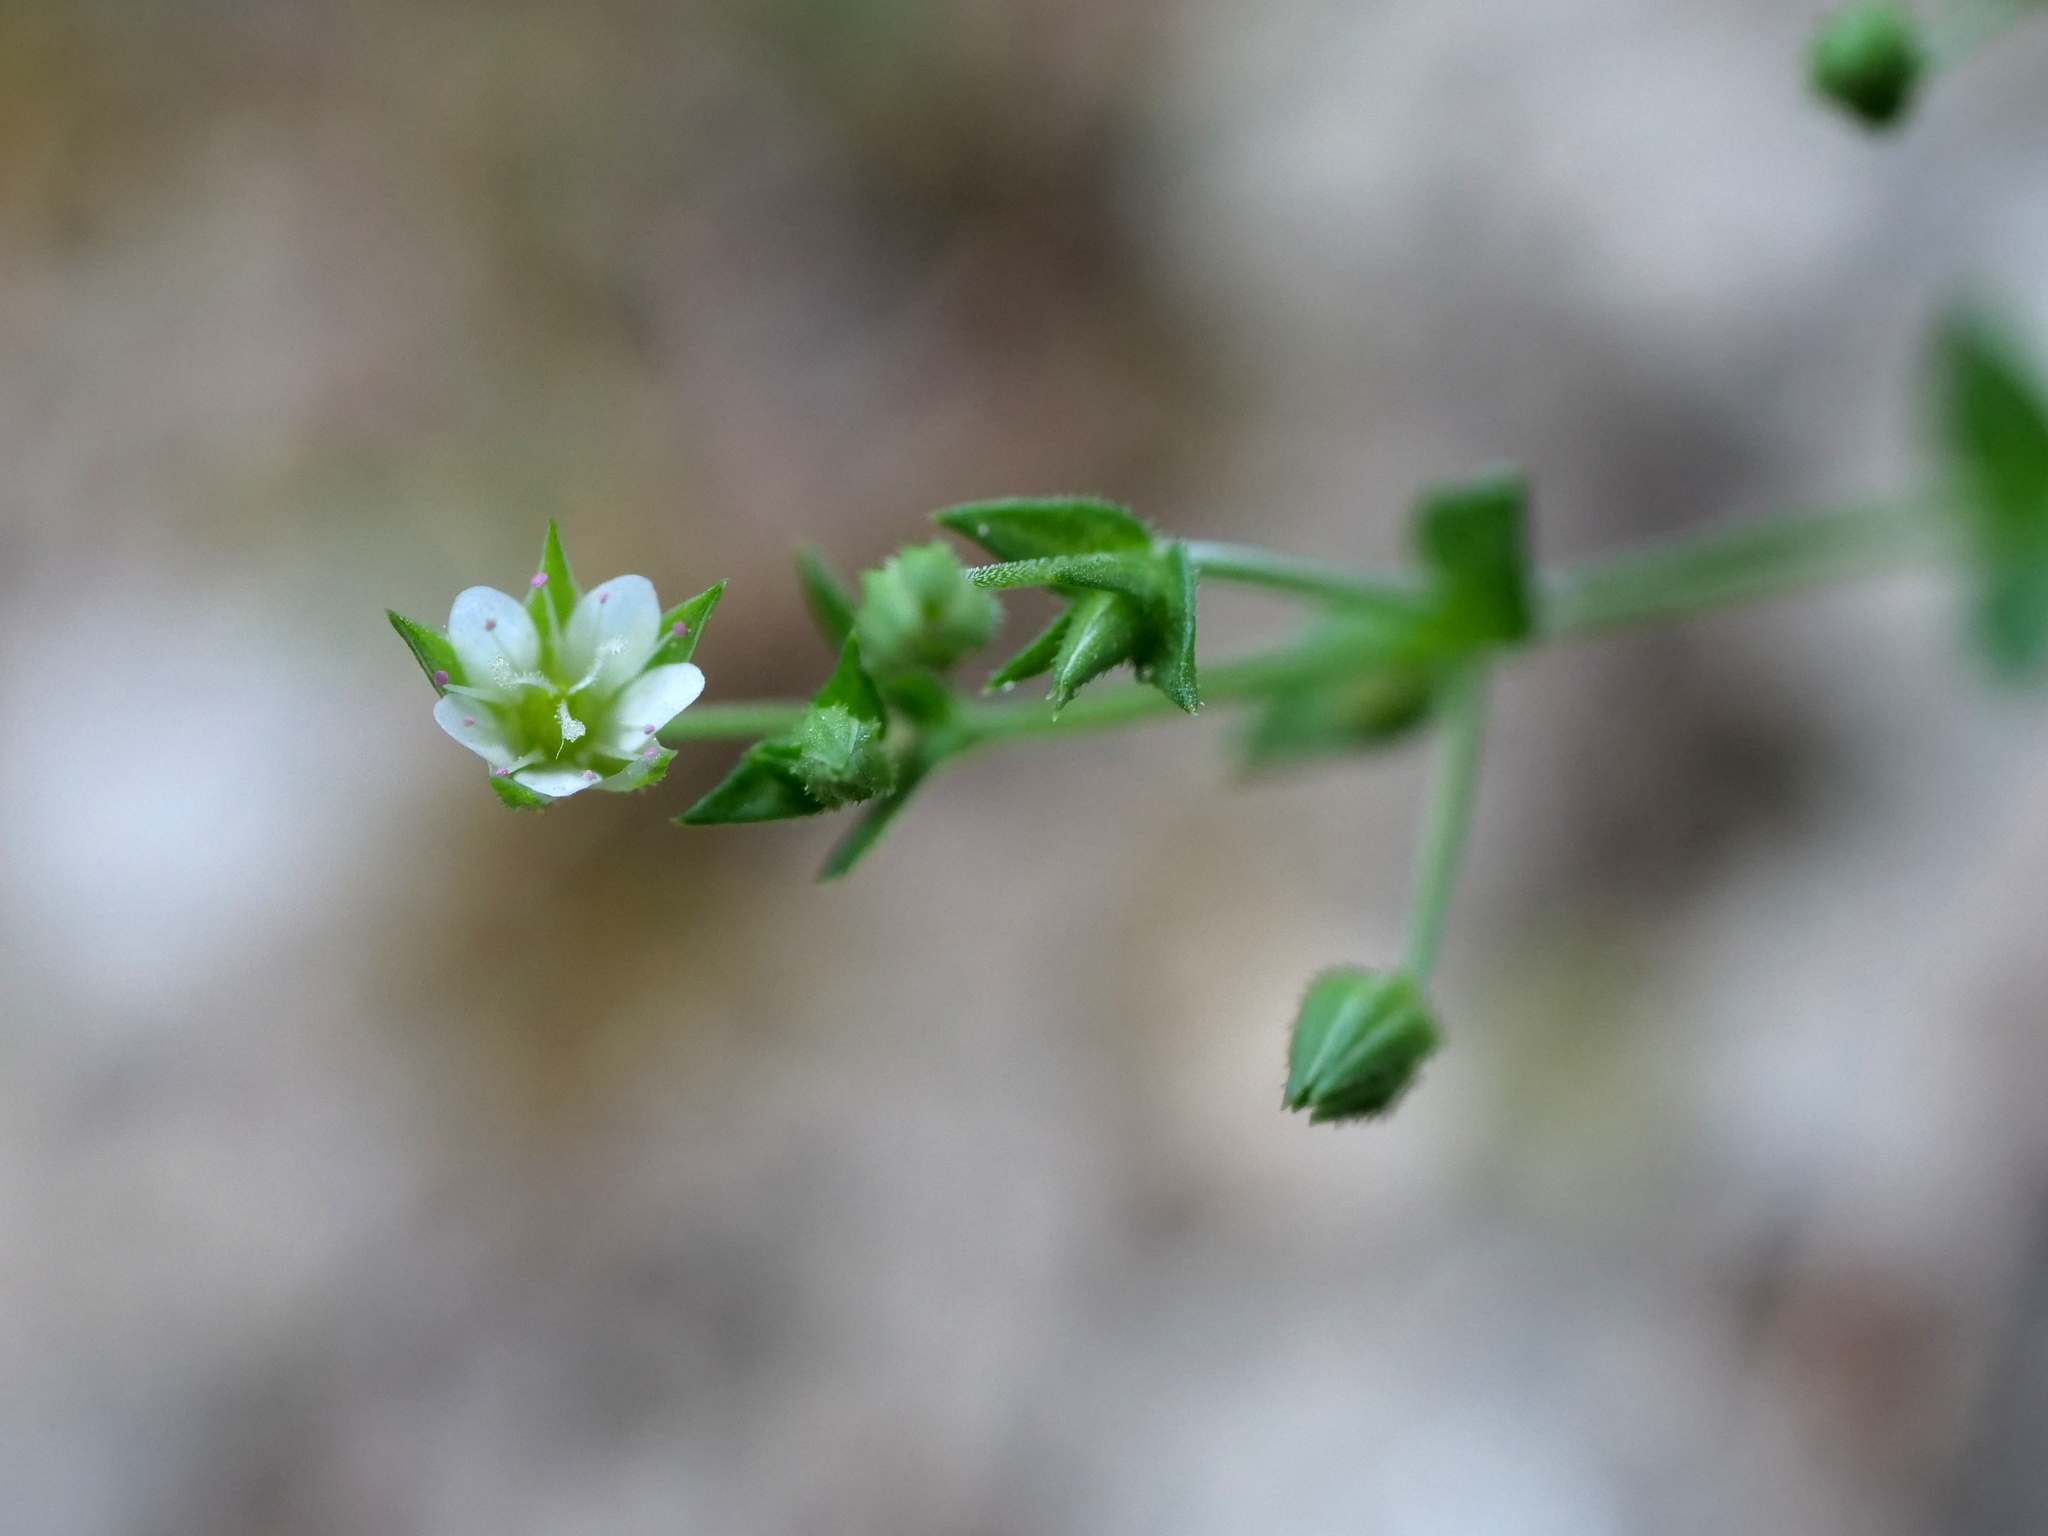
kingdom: Plantae
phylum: Tracheophyta
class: Magnoliopsida
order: Caryophyllales
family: Caryophyllaceae
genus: Arenaria
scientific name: Arenaria serpyllifolia
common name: Thyme-leaved sandwort
